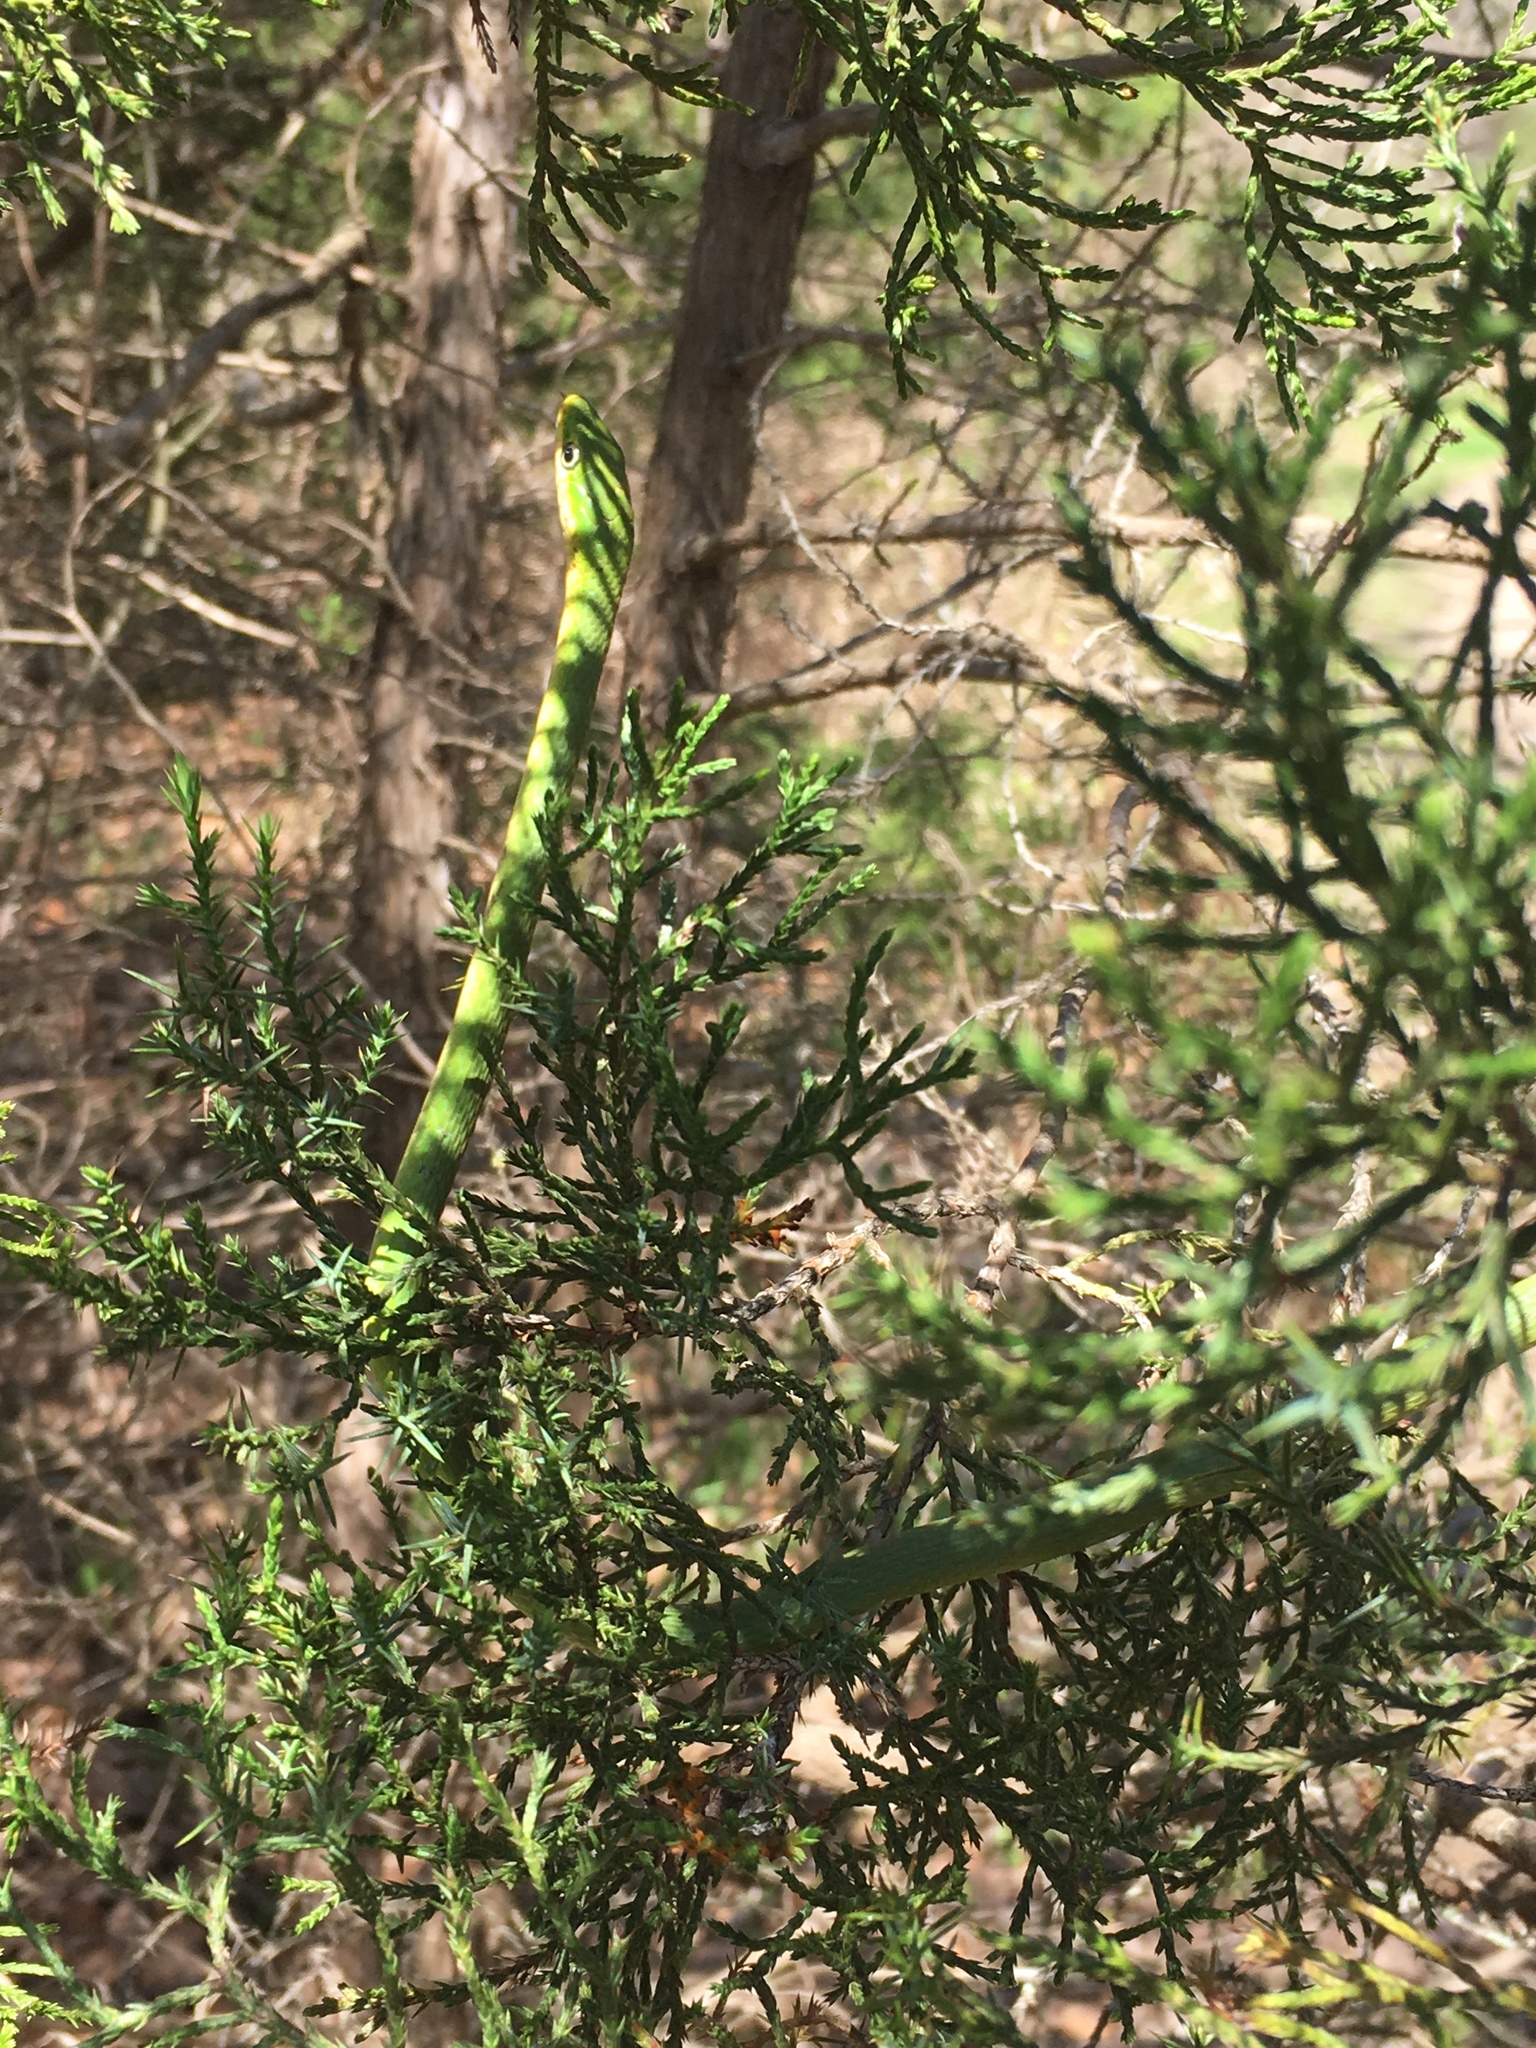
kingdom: Animalia
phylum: Chordata
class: Squamata
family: Colubridae
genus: Opheodrys
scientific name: Opheodrys aestivus
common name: Rough greensnake
